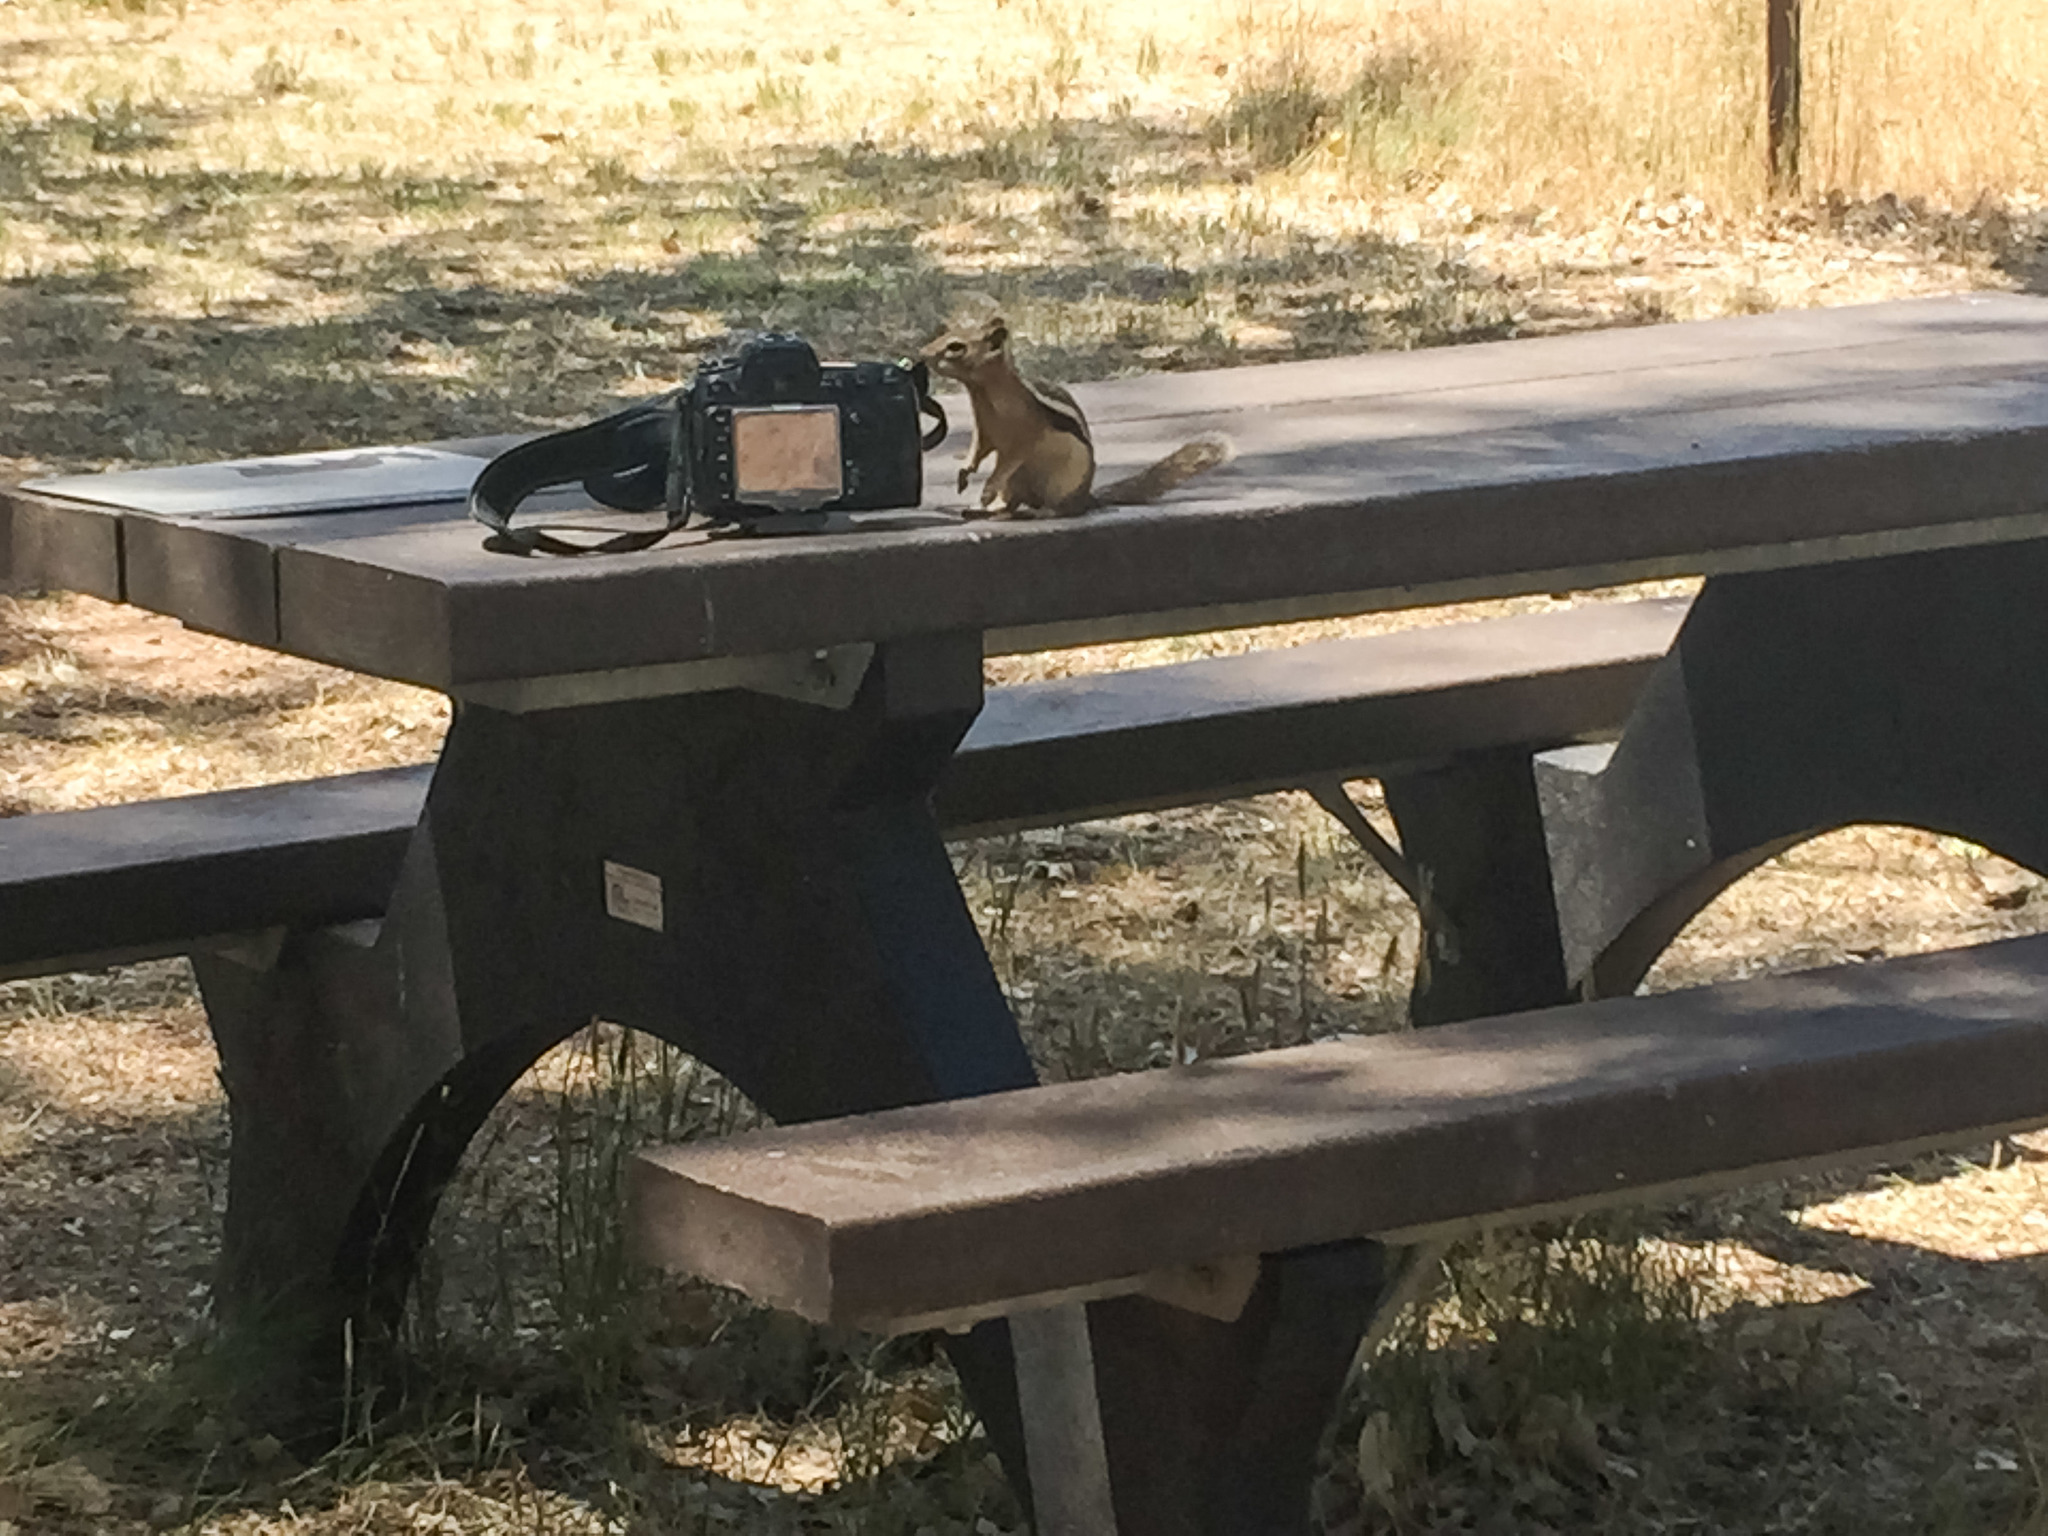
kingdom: Animalia
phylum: Chordata
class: Mammalia
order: Rodentia
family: Sciuridae
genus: Callospermophilus
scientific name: Callospermophilus lateralis
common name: Golden-mantled ground squirrel
